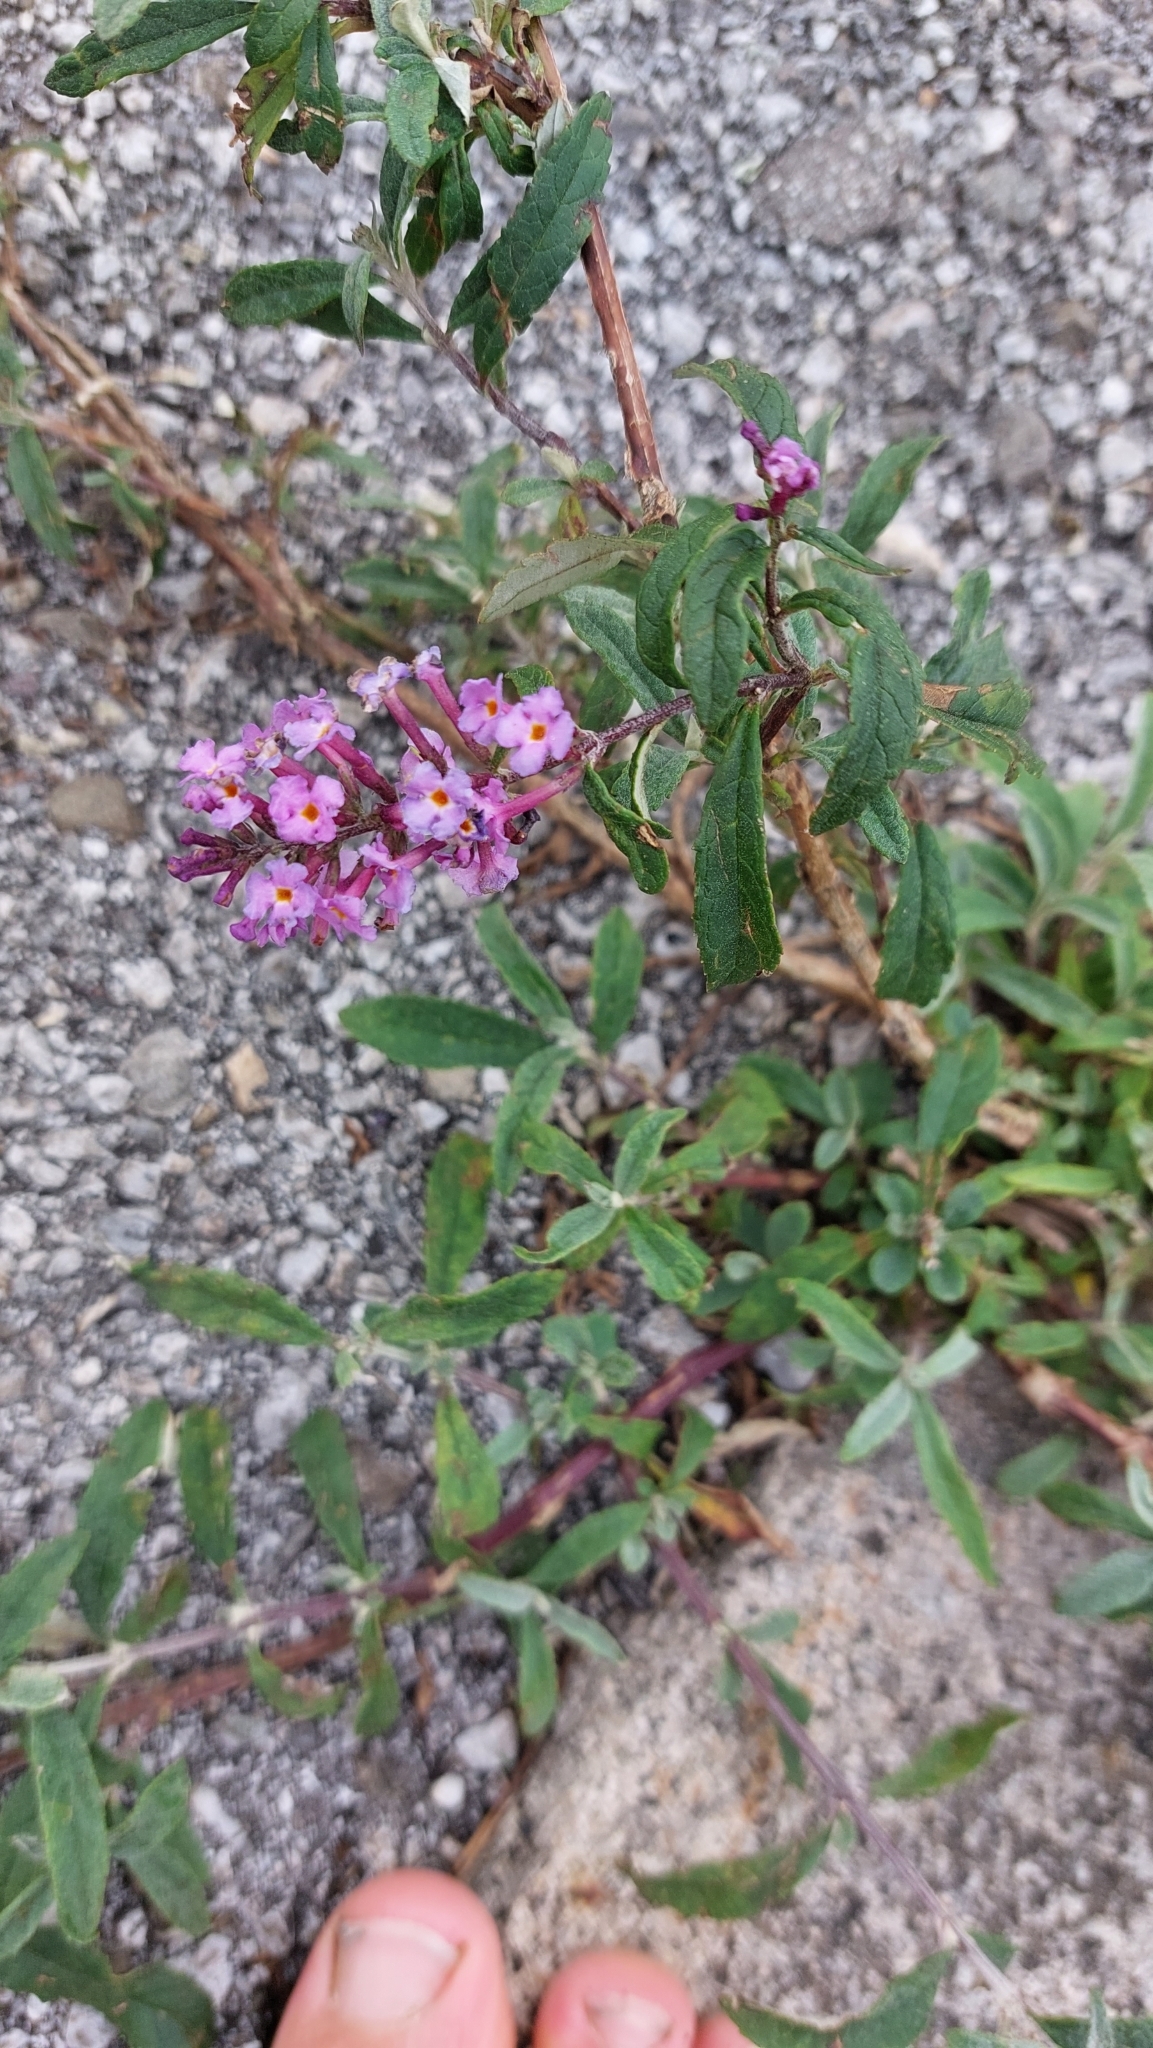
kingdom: Plantae
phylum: Tracheophyta
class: Magnoliopsida
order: Lamiales
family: Scrophulariaceae
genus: Buddleja
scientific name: Buddleja davidii
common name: Butterfly-bush
